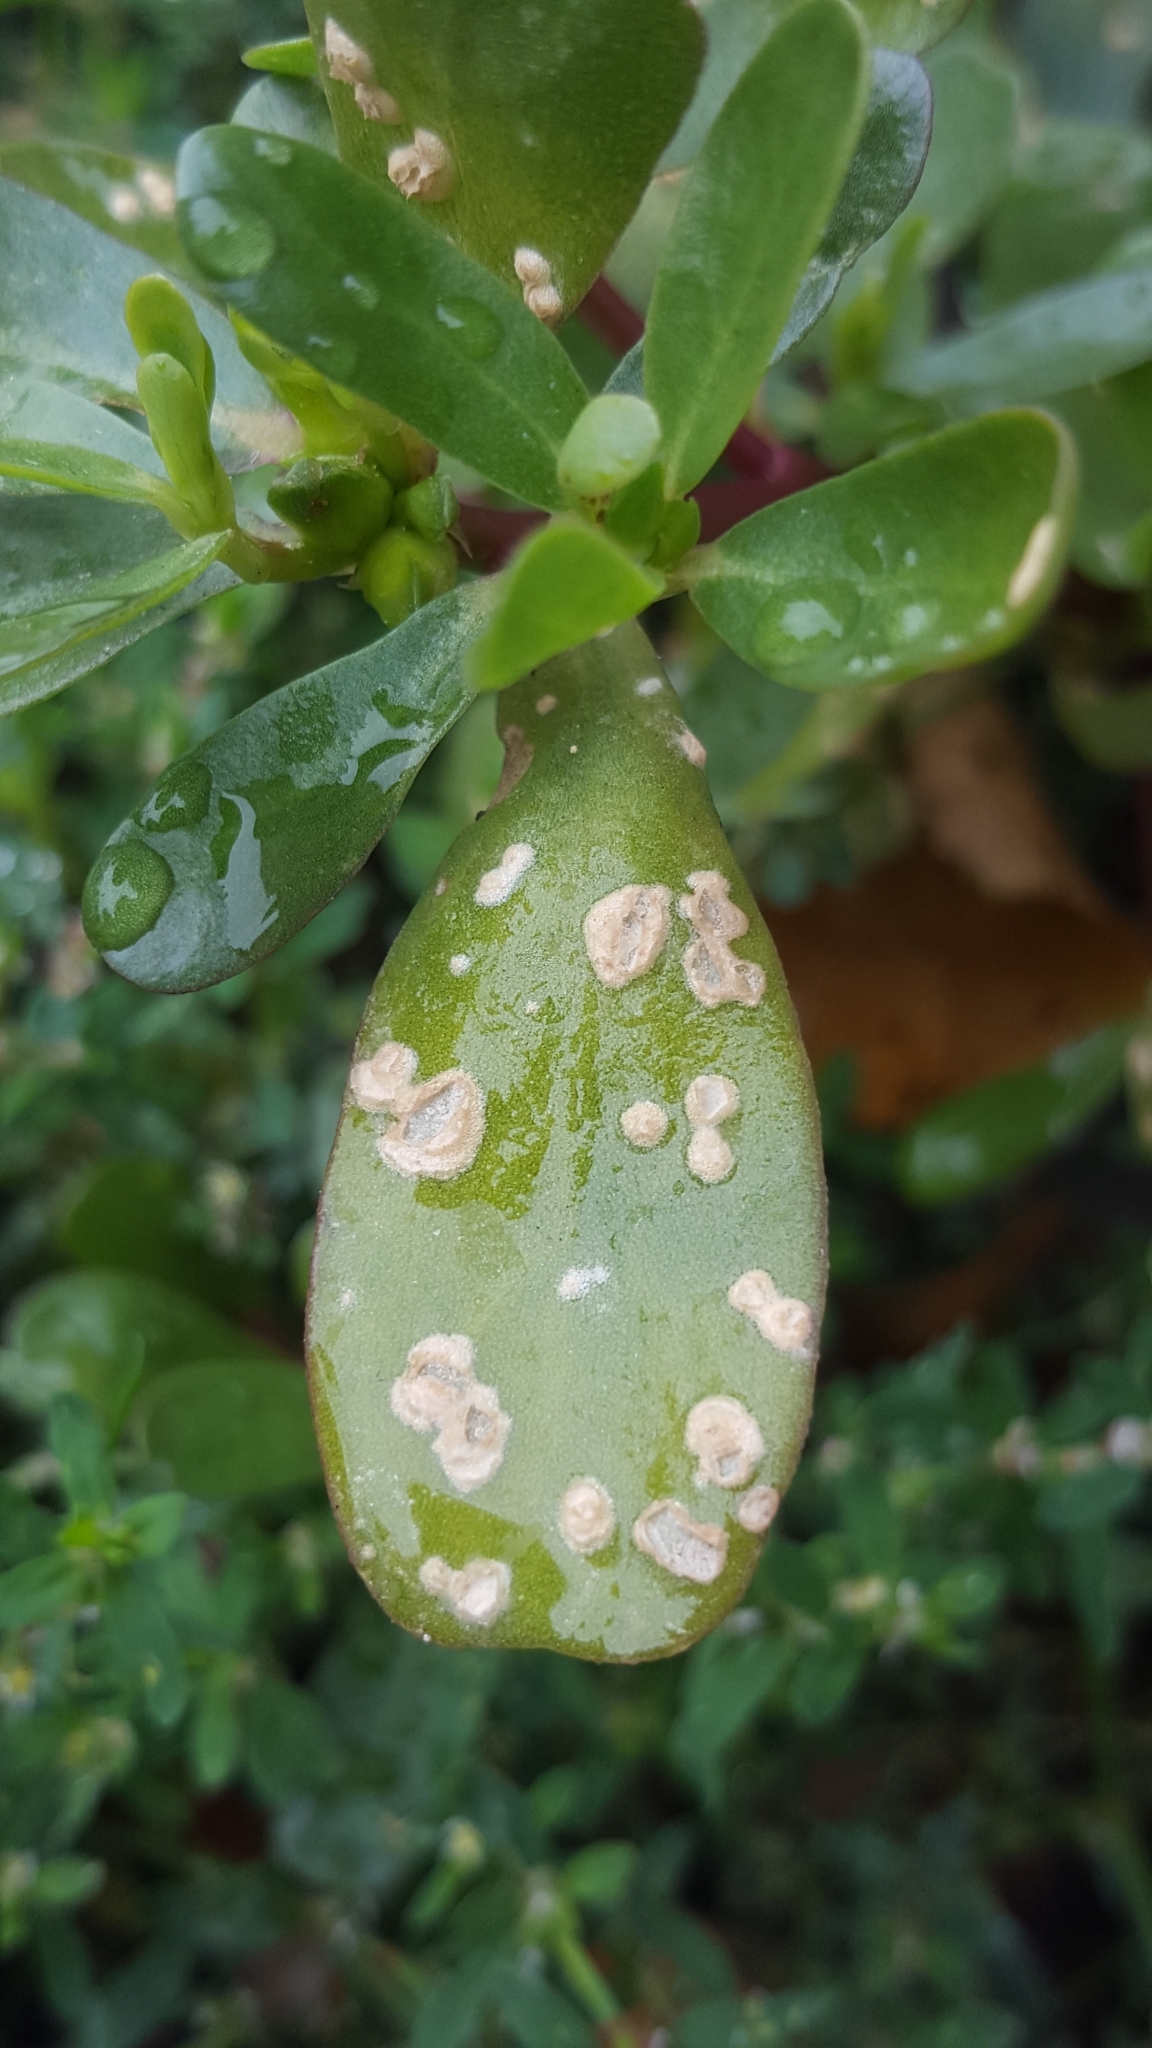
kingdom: Chromista
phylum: Oomycota
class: Peronosporea
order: Albuginales
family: Albuginaceae
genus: Wilsoniana
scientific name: Wilsoniana portulacae
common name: Purslane white rust
